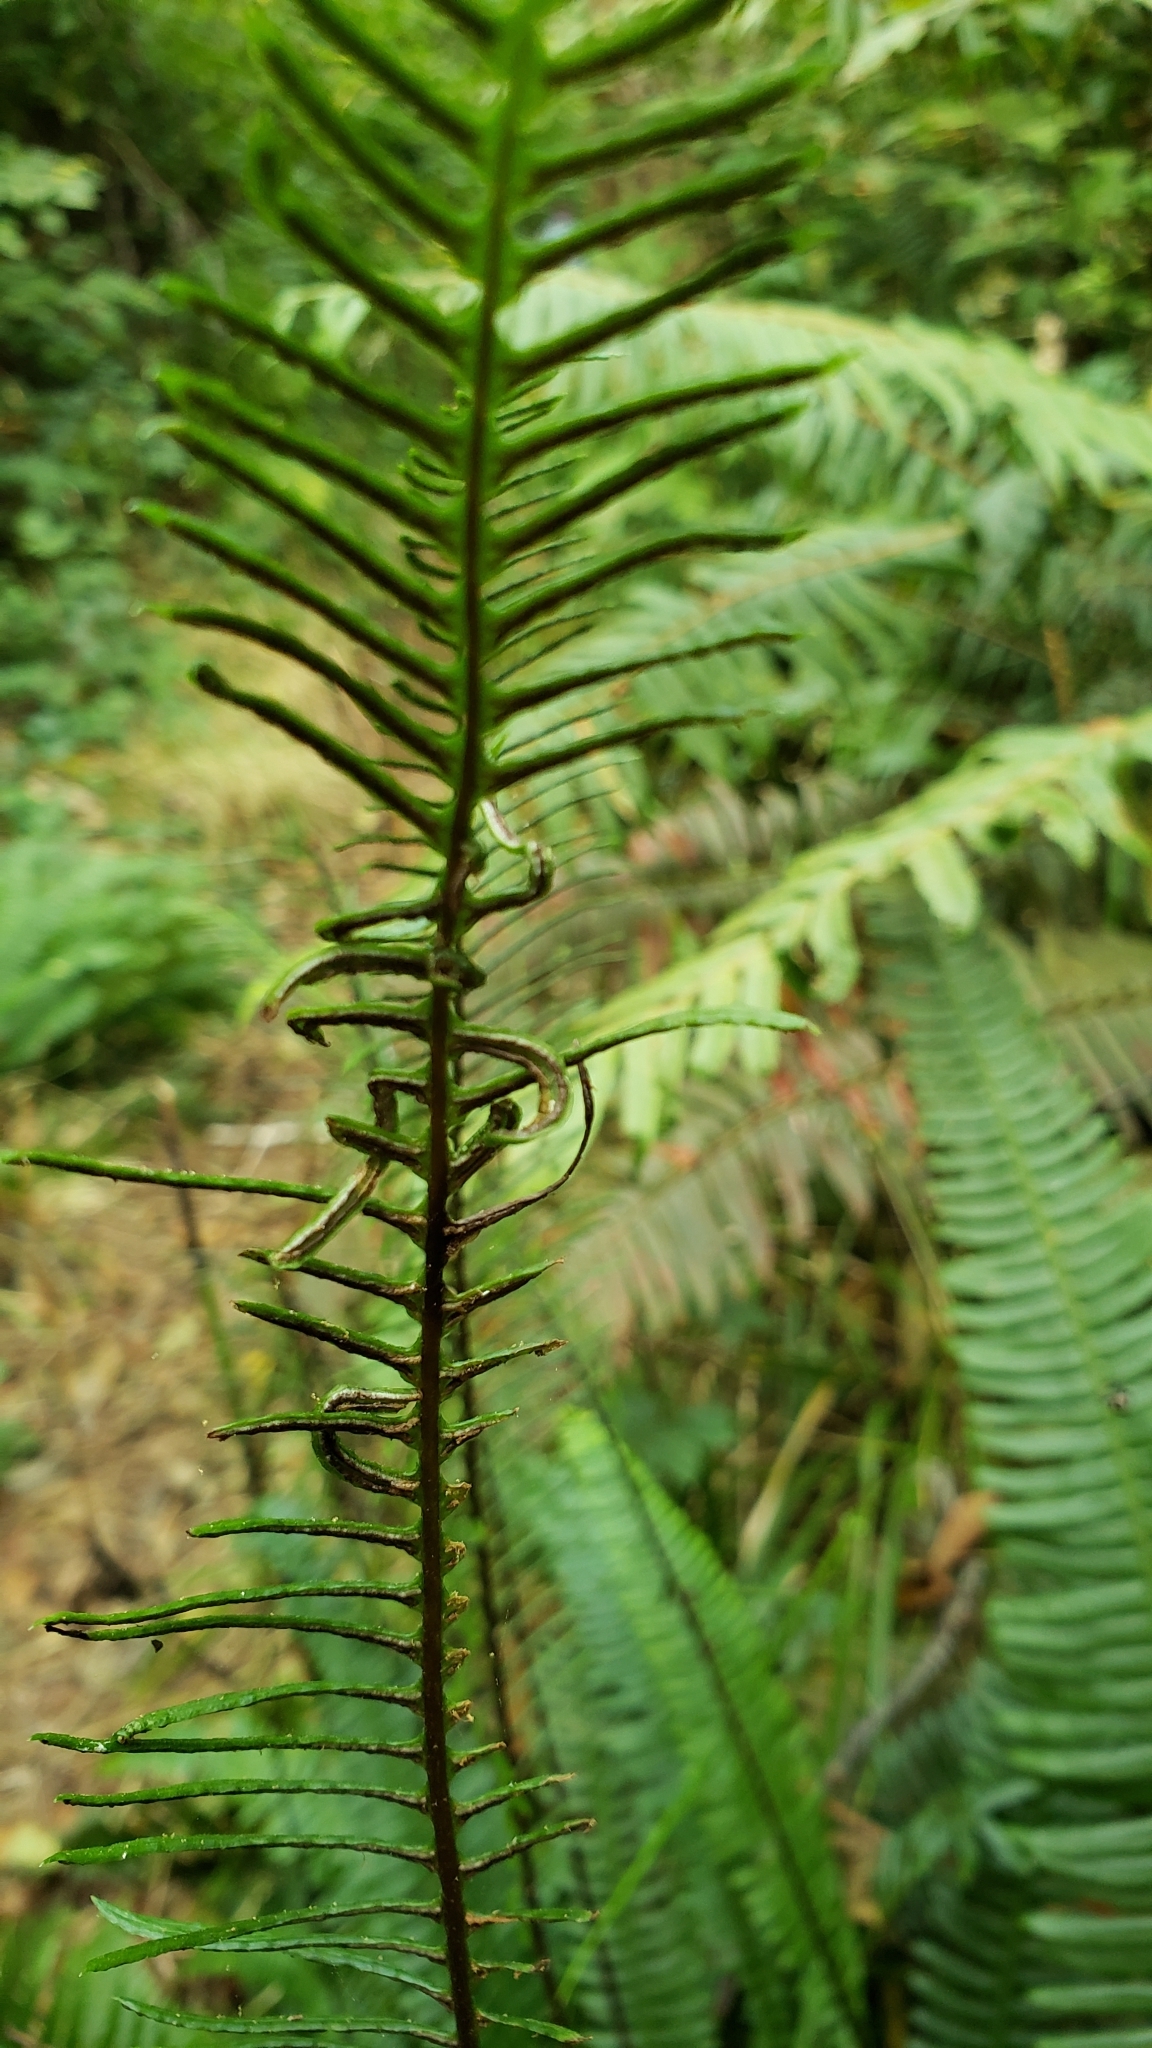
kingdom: Plantae
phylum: Tracheophyta
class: Polypodiopsida
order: Polypodiales
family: Blechnaceae
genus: Struthiopteris
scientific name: Struthiopteris spicant
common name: Deer fern
